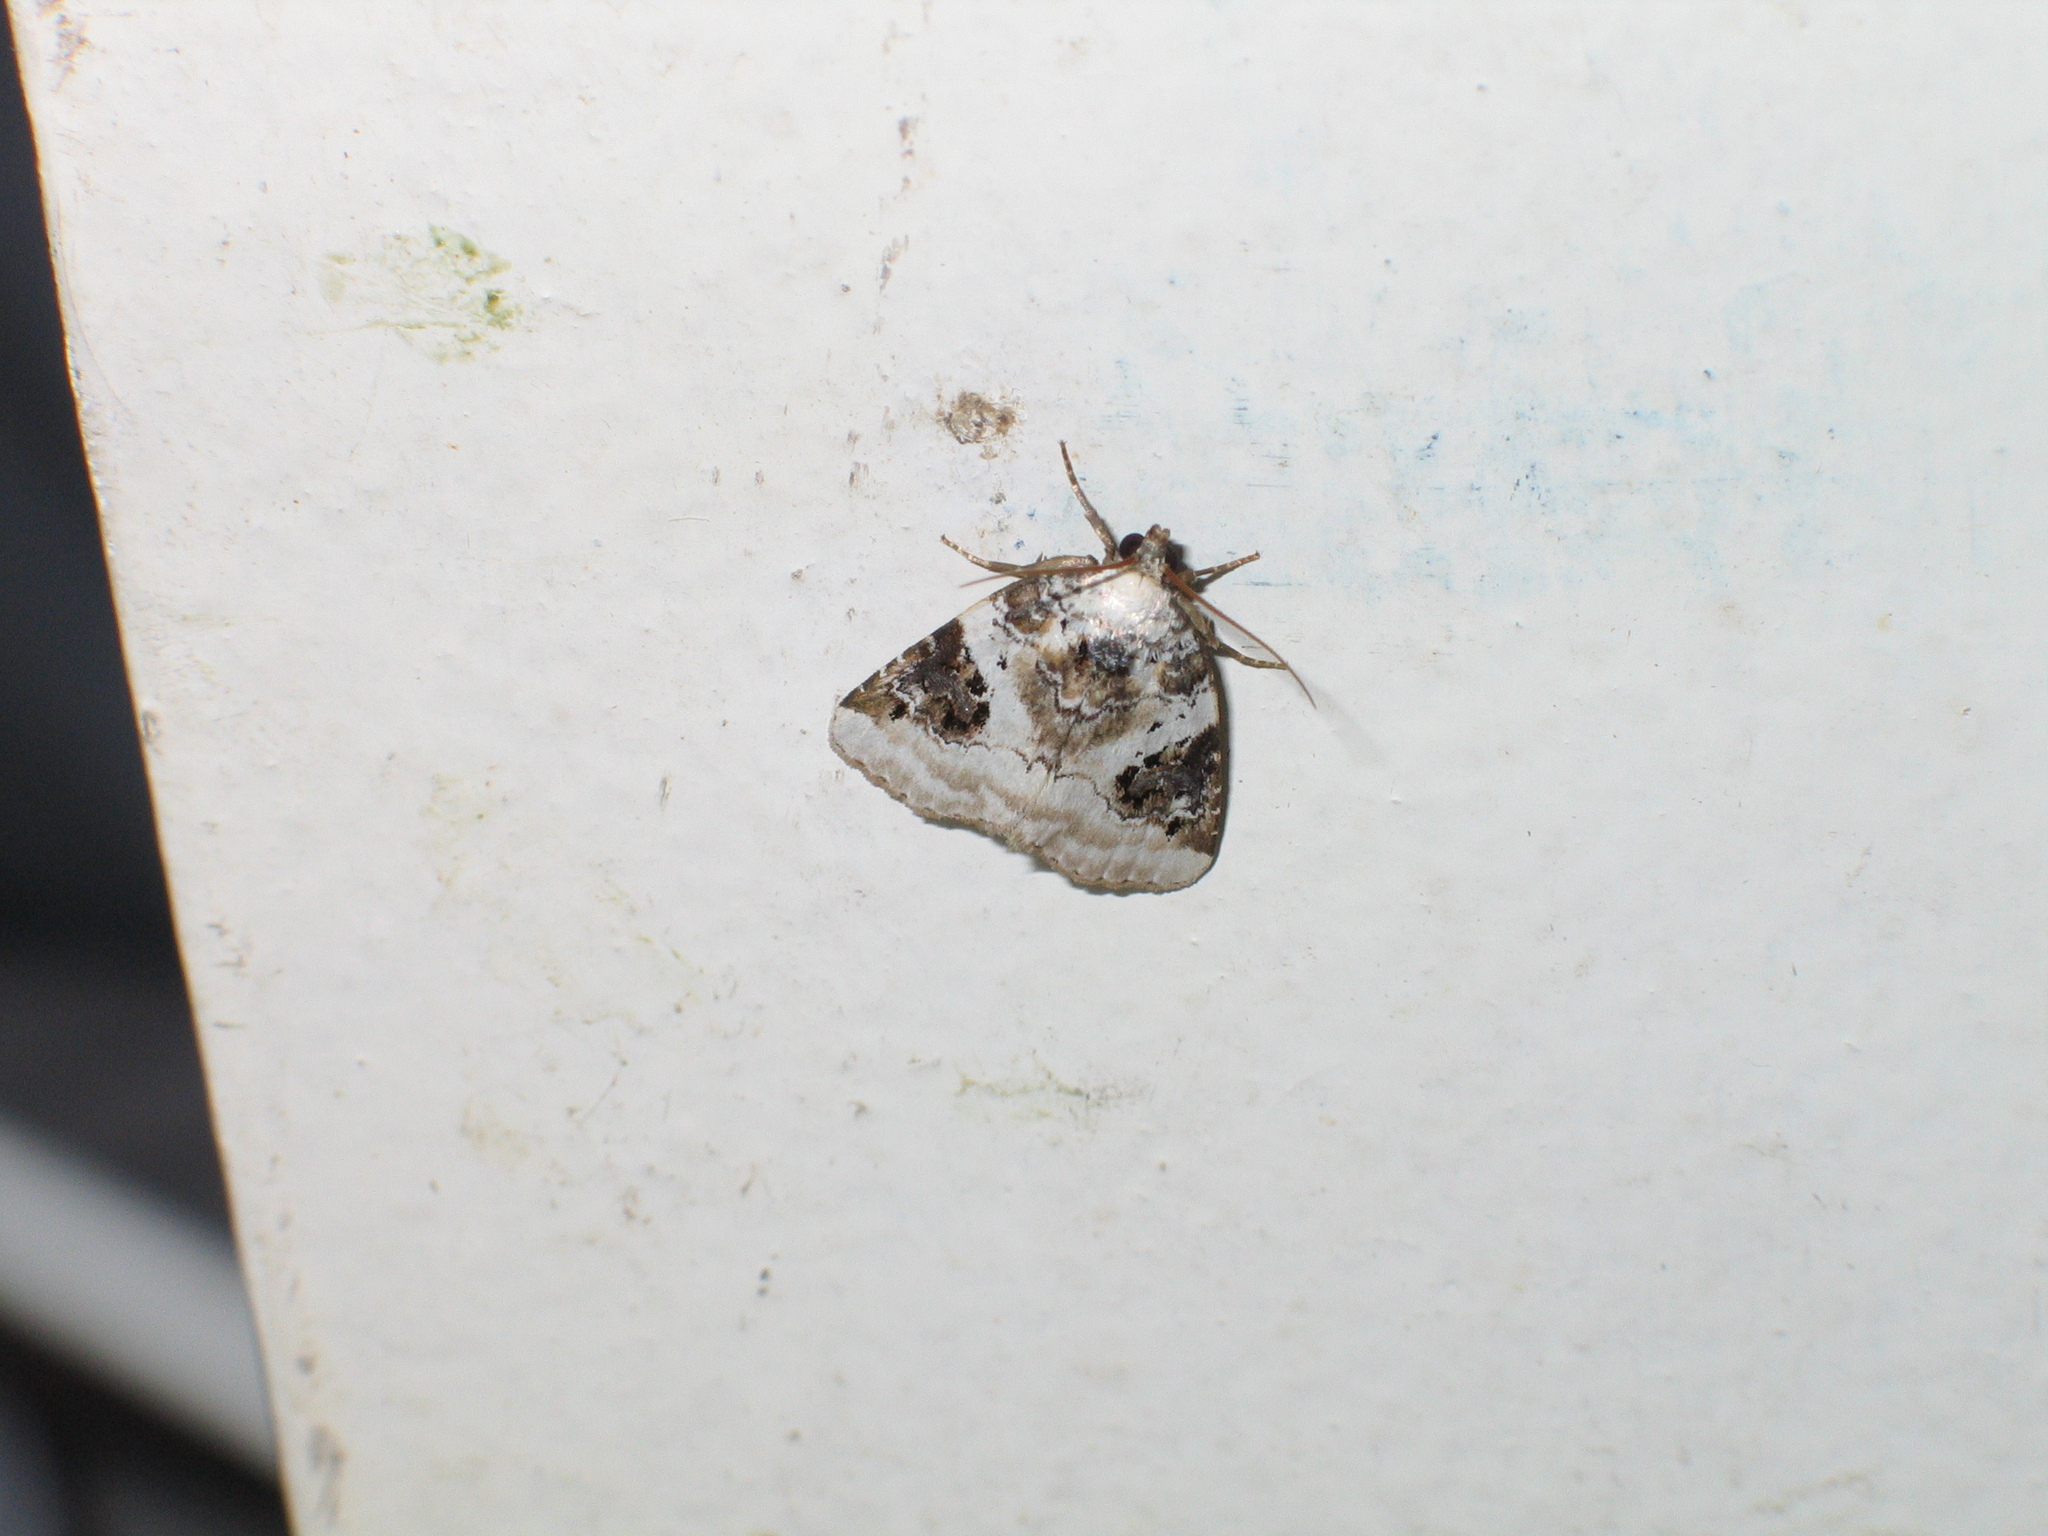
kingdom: Animalia
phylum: Arthropoda
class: Insecta
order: Lepidoptera
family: Noctuidae
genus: Pseudeustrotia
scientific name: Pseudeustrotia candidula
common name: Shining marbled
